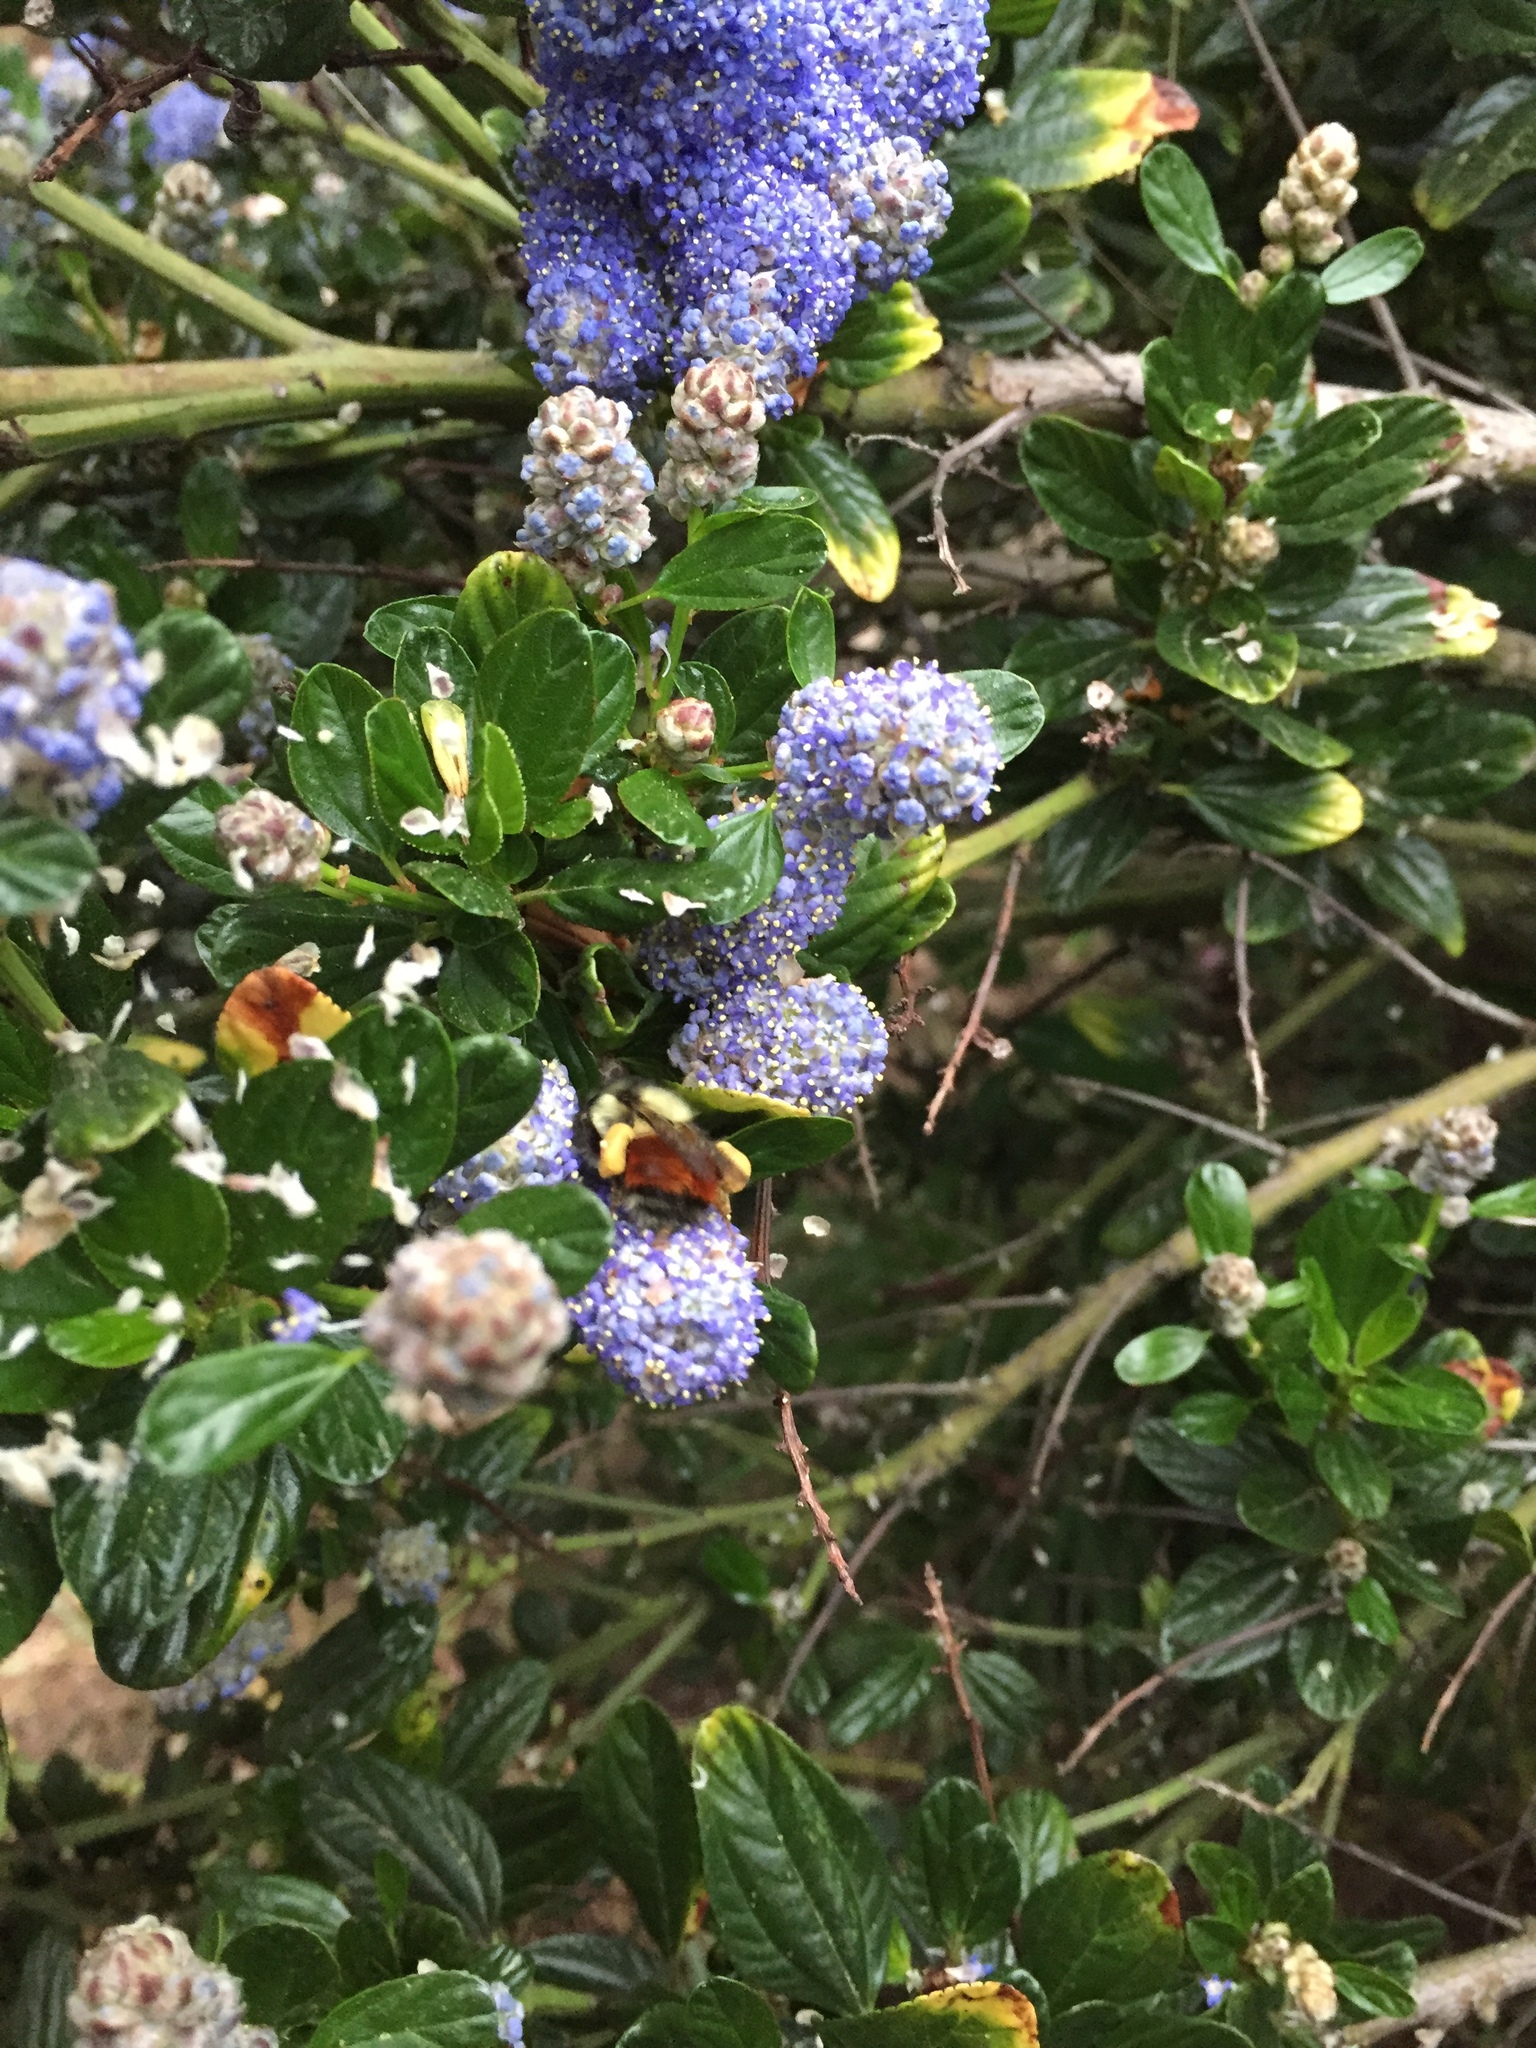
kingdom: Animalia
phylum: Arthropoda
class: Insecta
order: Hymenoptera
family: Apidae
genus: Bombus
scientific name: Bombus melanopygus
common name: Black tail bumble bee
